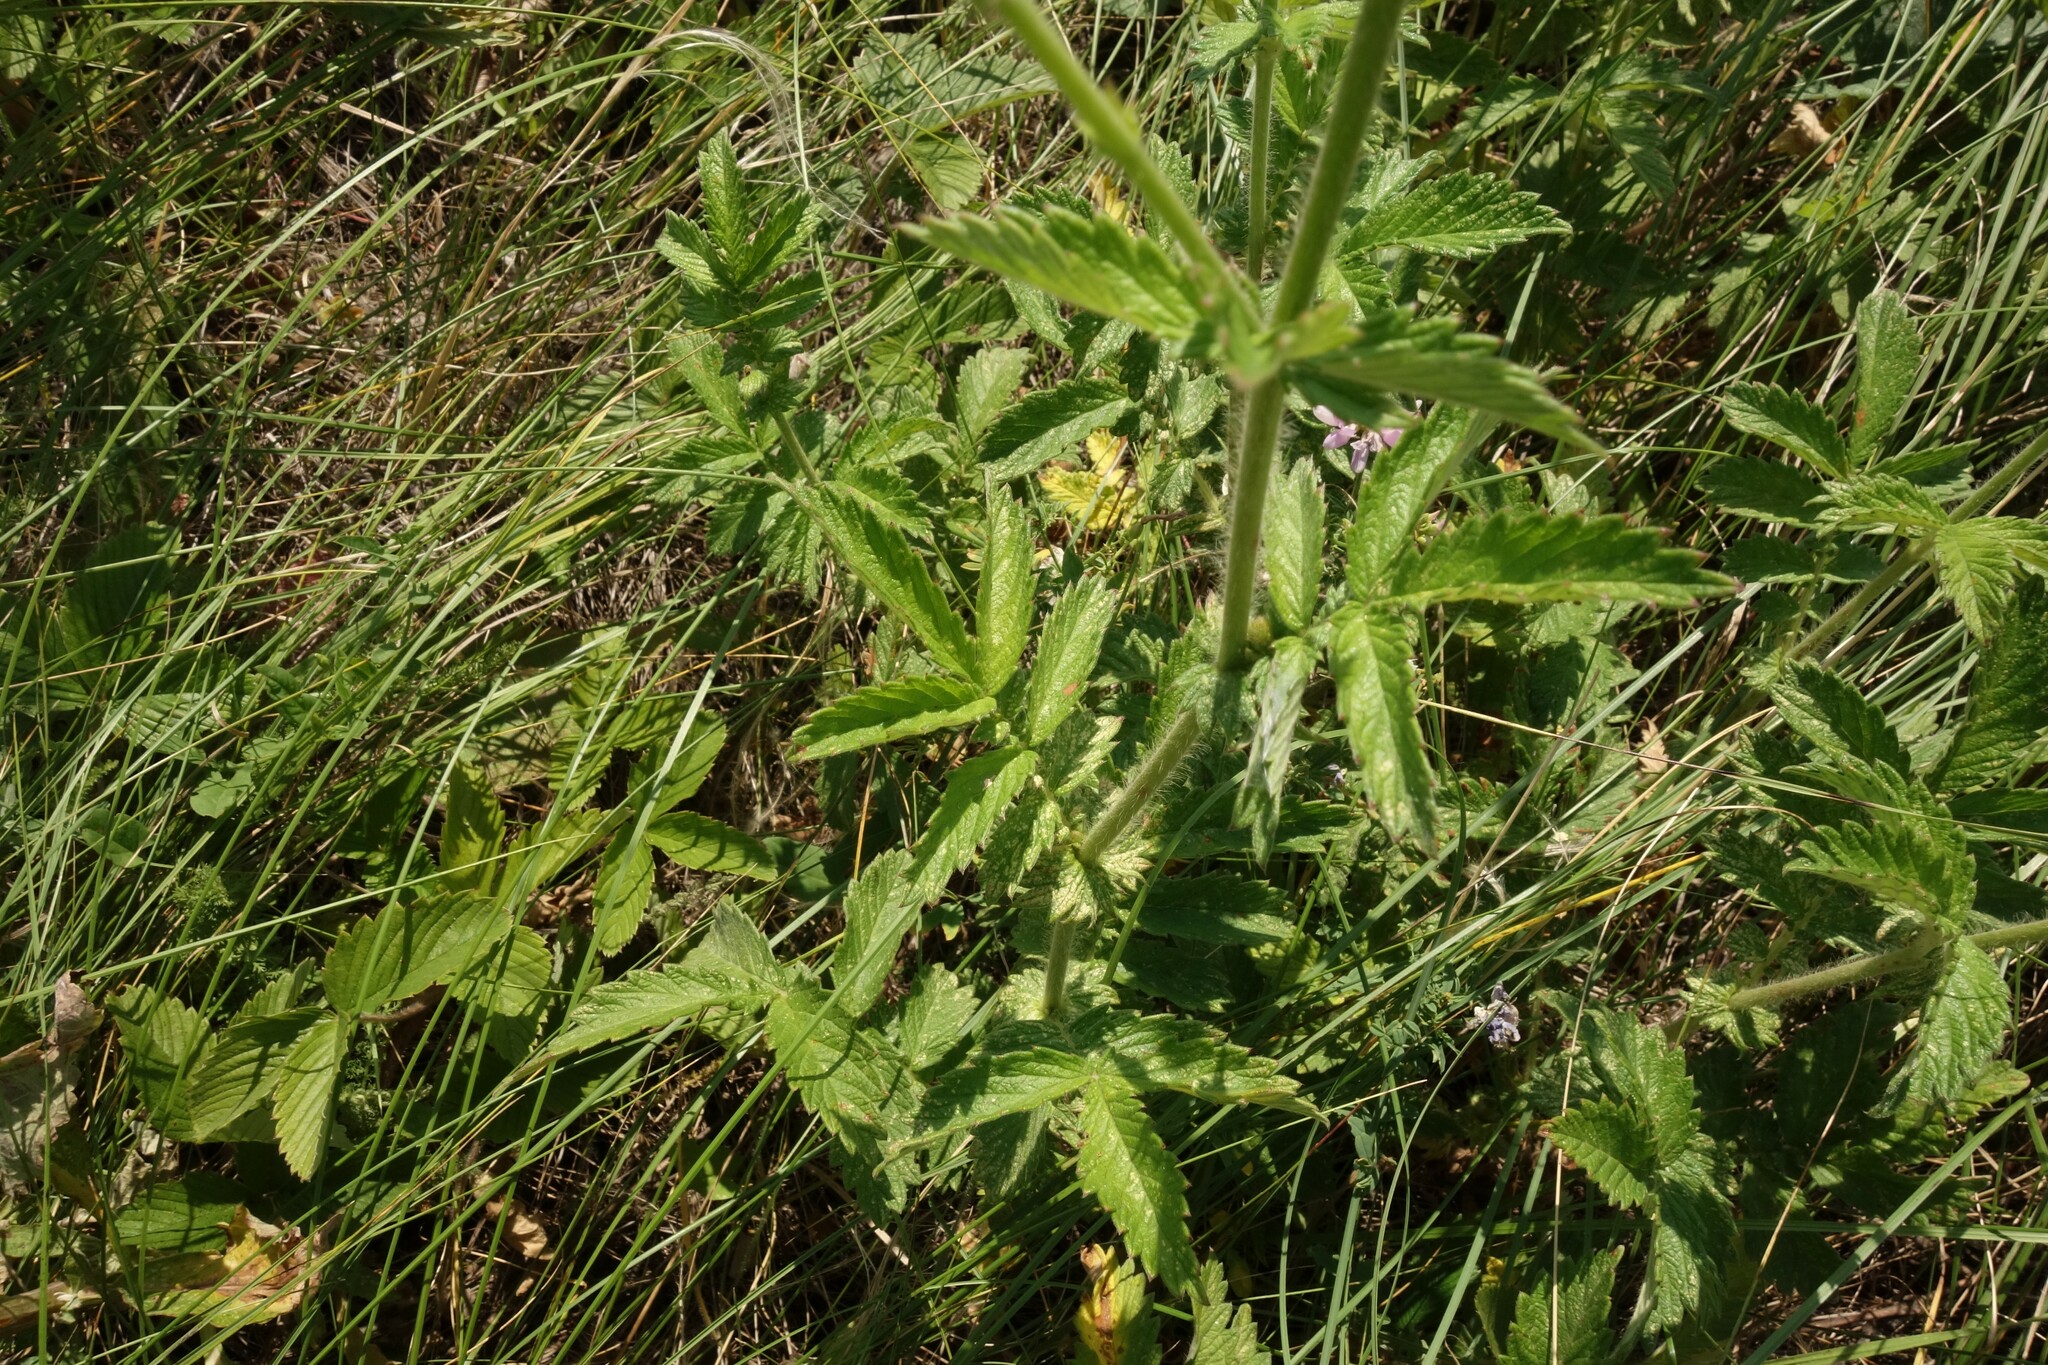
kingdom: Plantae
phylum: Tracheophyta
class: Magnoliopsida
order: Rosales
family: Rosaceae
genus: Agrimonia
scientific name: Agrimonia eupatoria
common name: Agrimony
